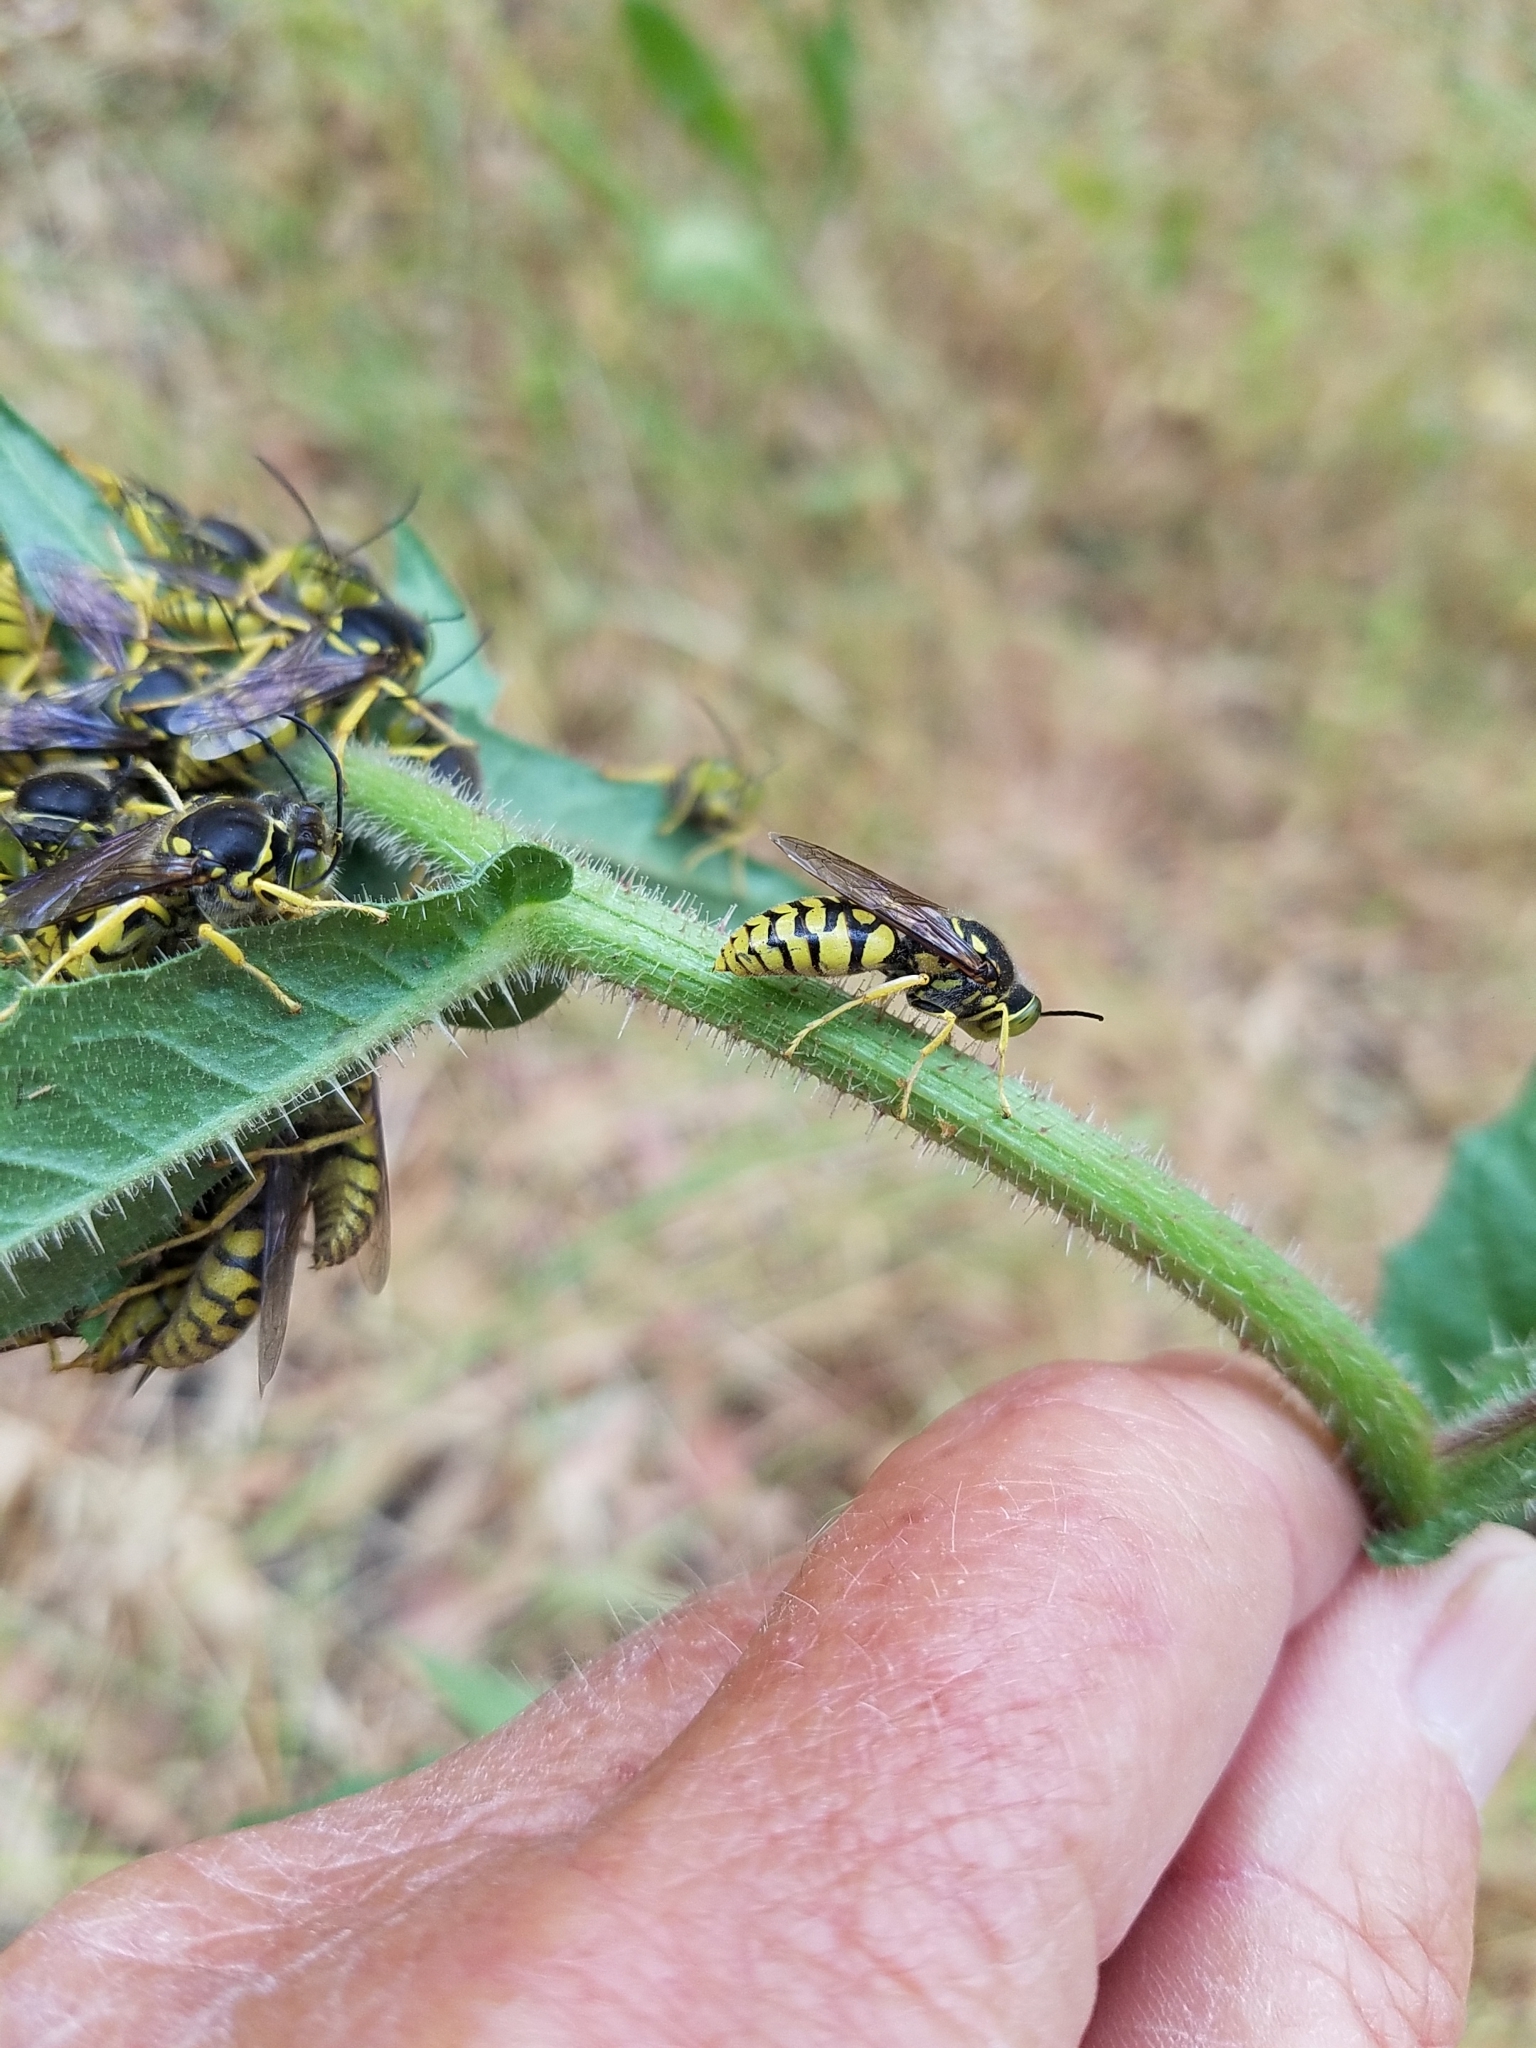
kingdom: Animalia
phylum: Arthropoda
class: Insecta
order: Hymenoptera
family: Crabronidae
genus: Steniolia
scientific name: Steniolia scolopacea
